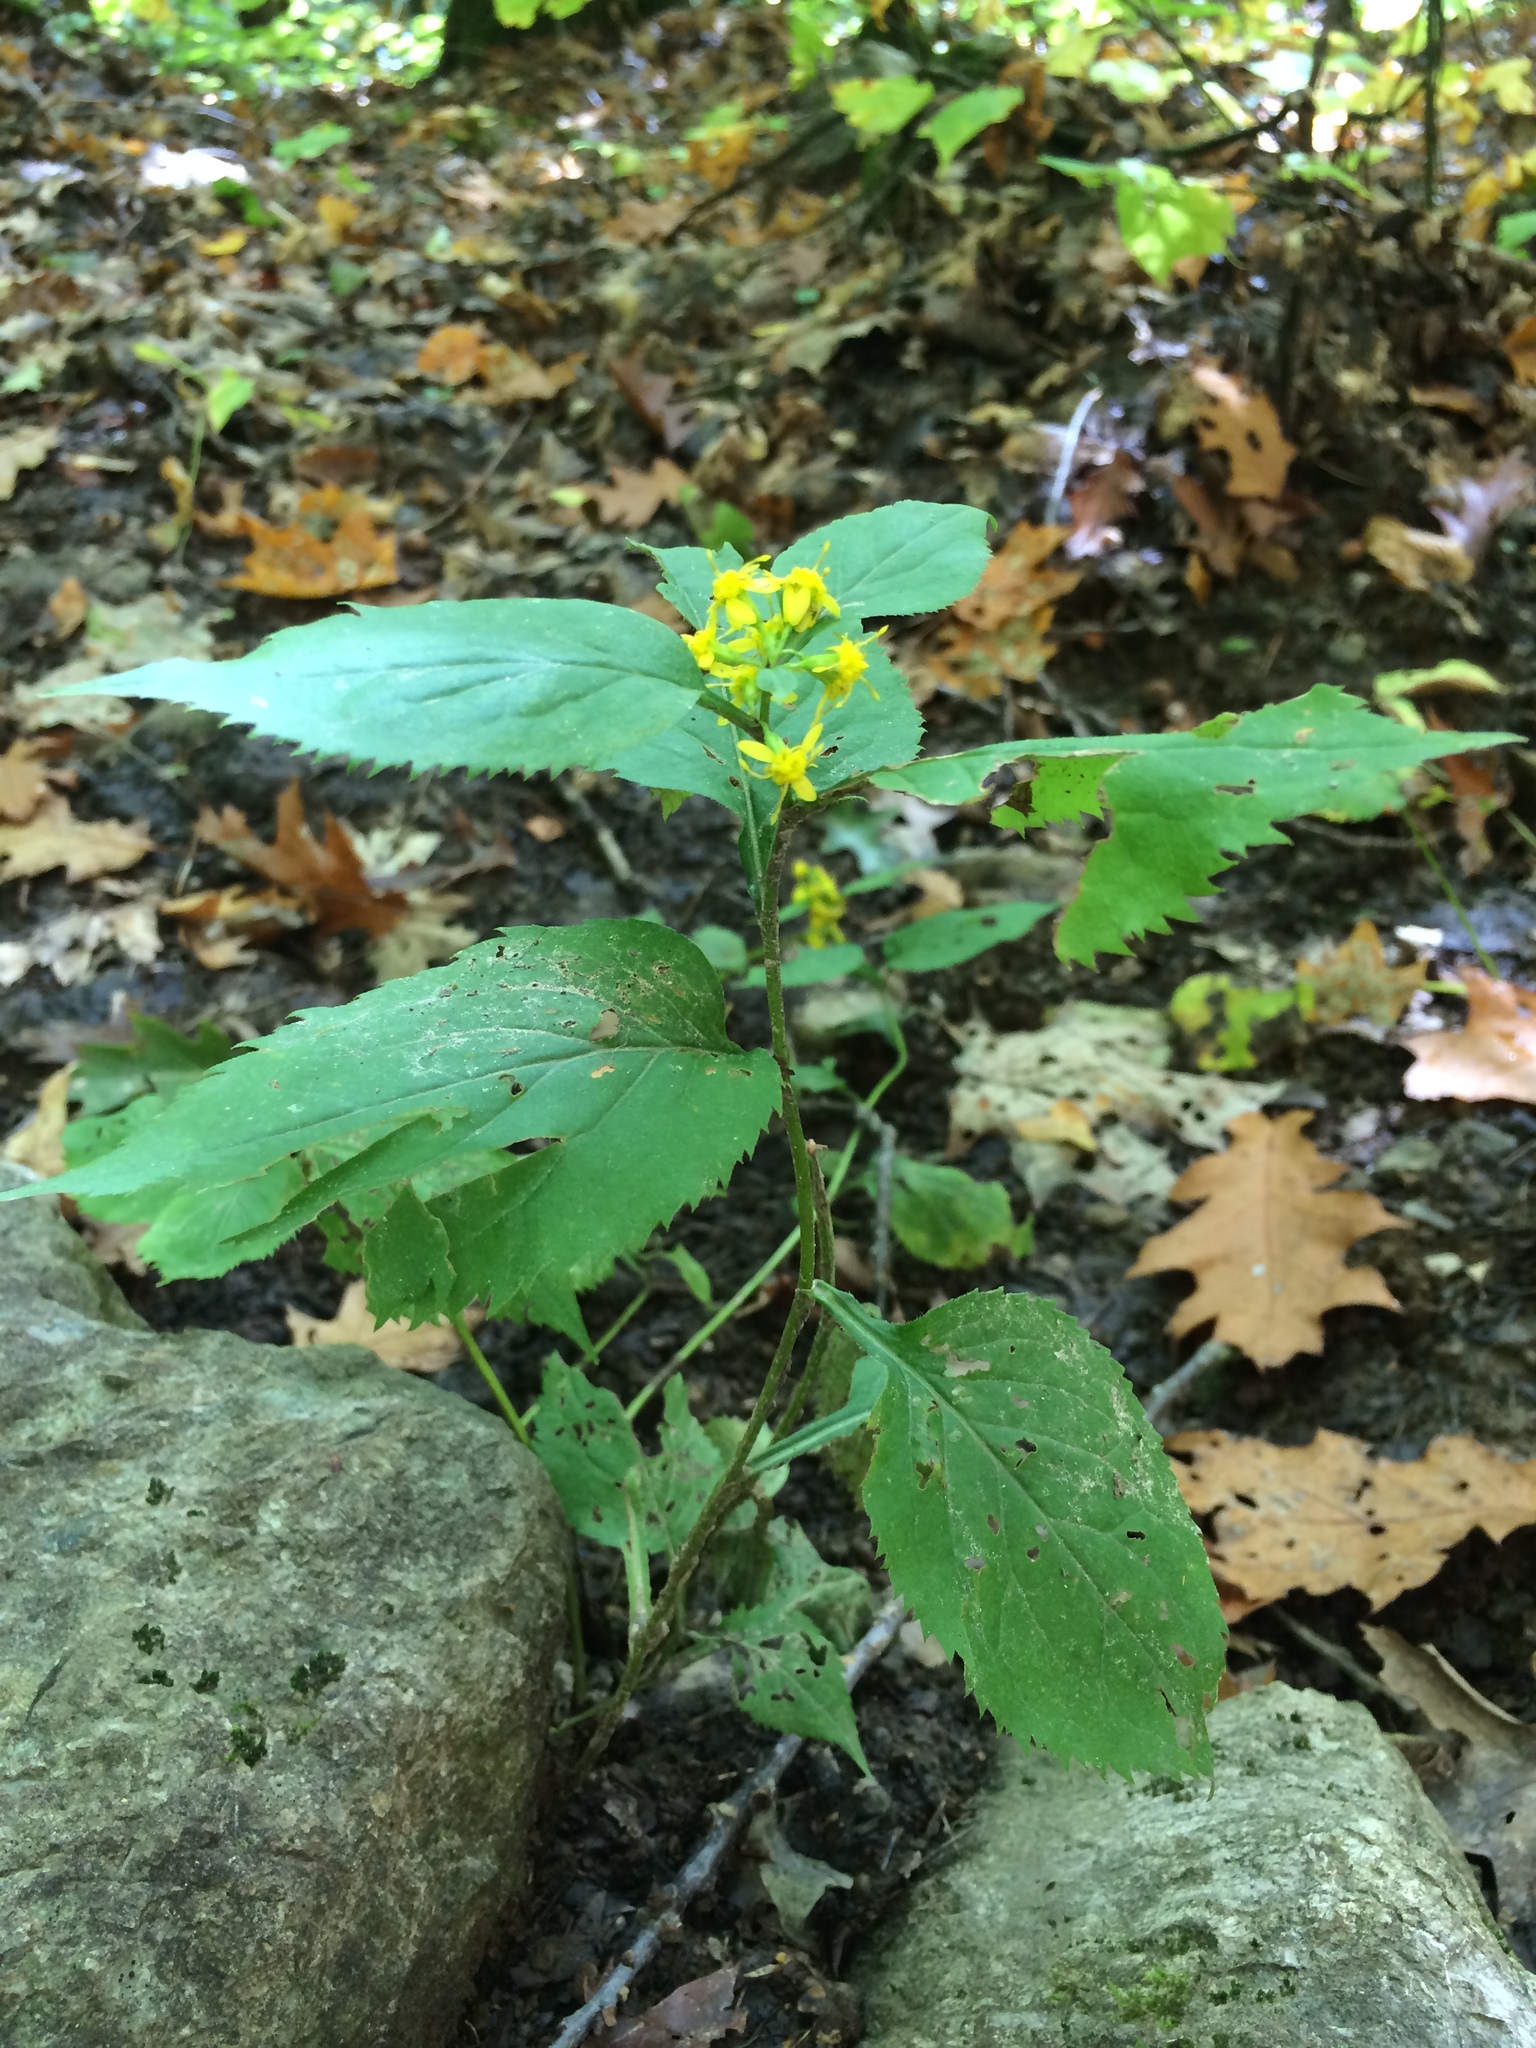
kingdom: Plantae
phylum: Tracheophyta
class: Magnoliopsida
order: Asterales
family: Asteraceae
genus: Solidago
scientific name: Solidago flexicaulis
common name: Zig-zag goldenrod
